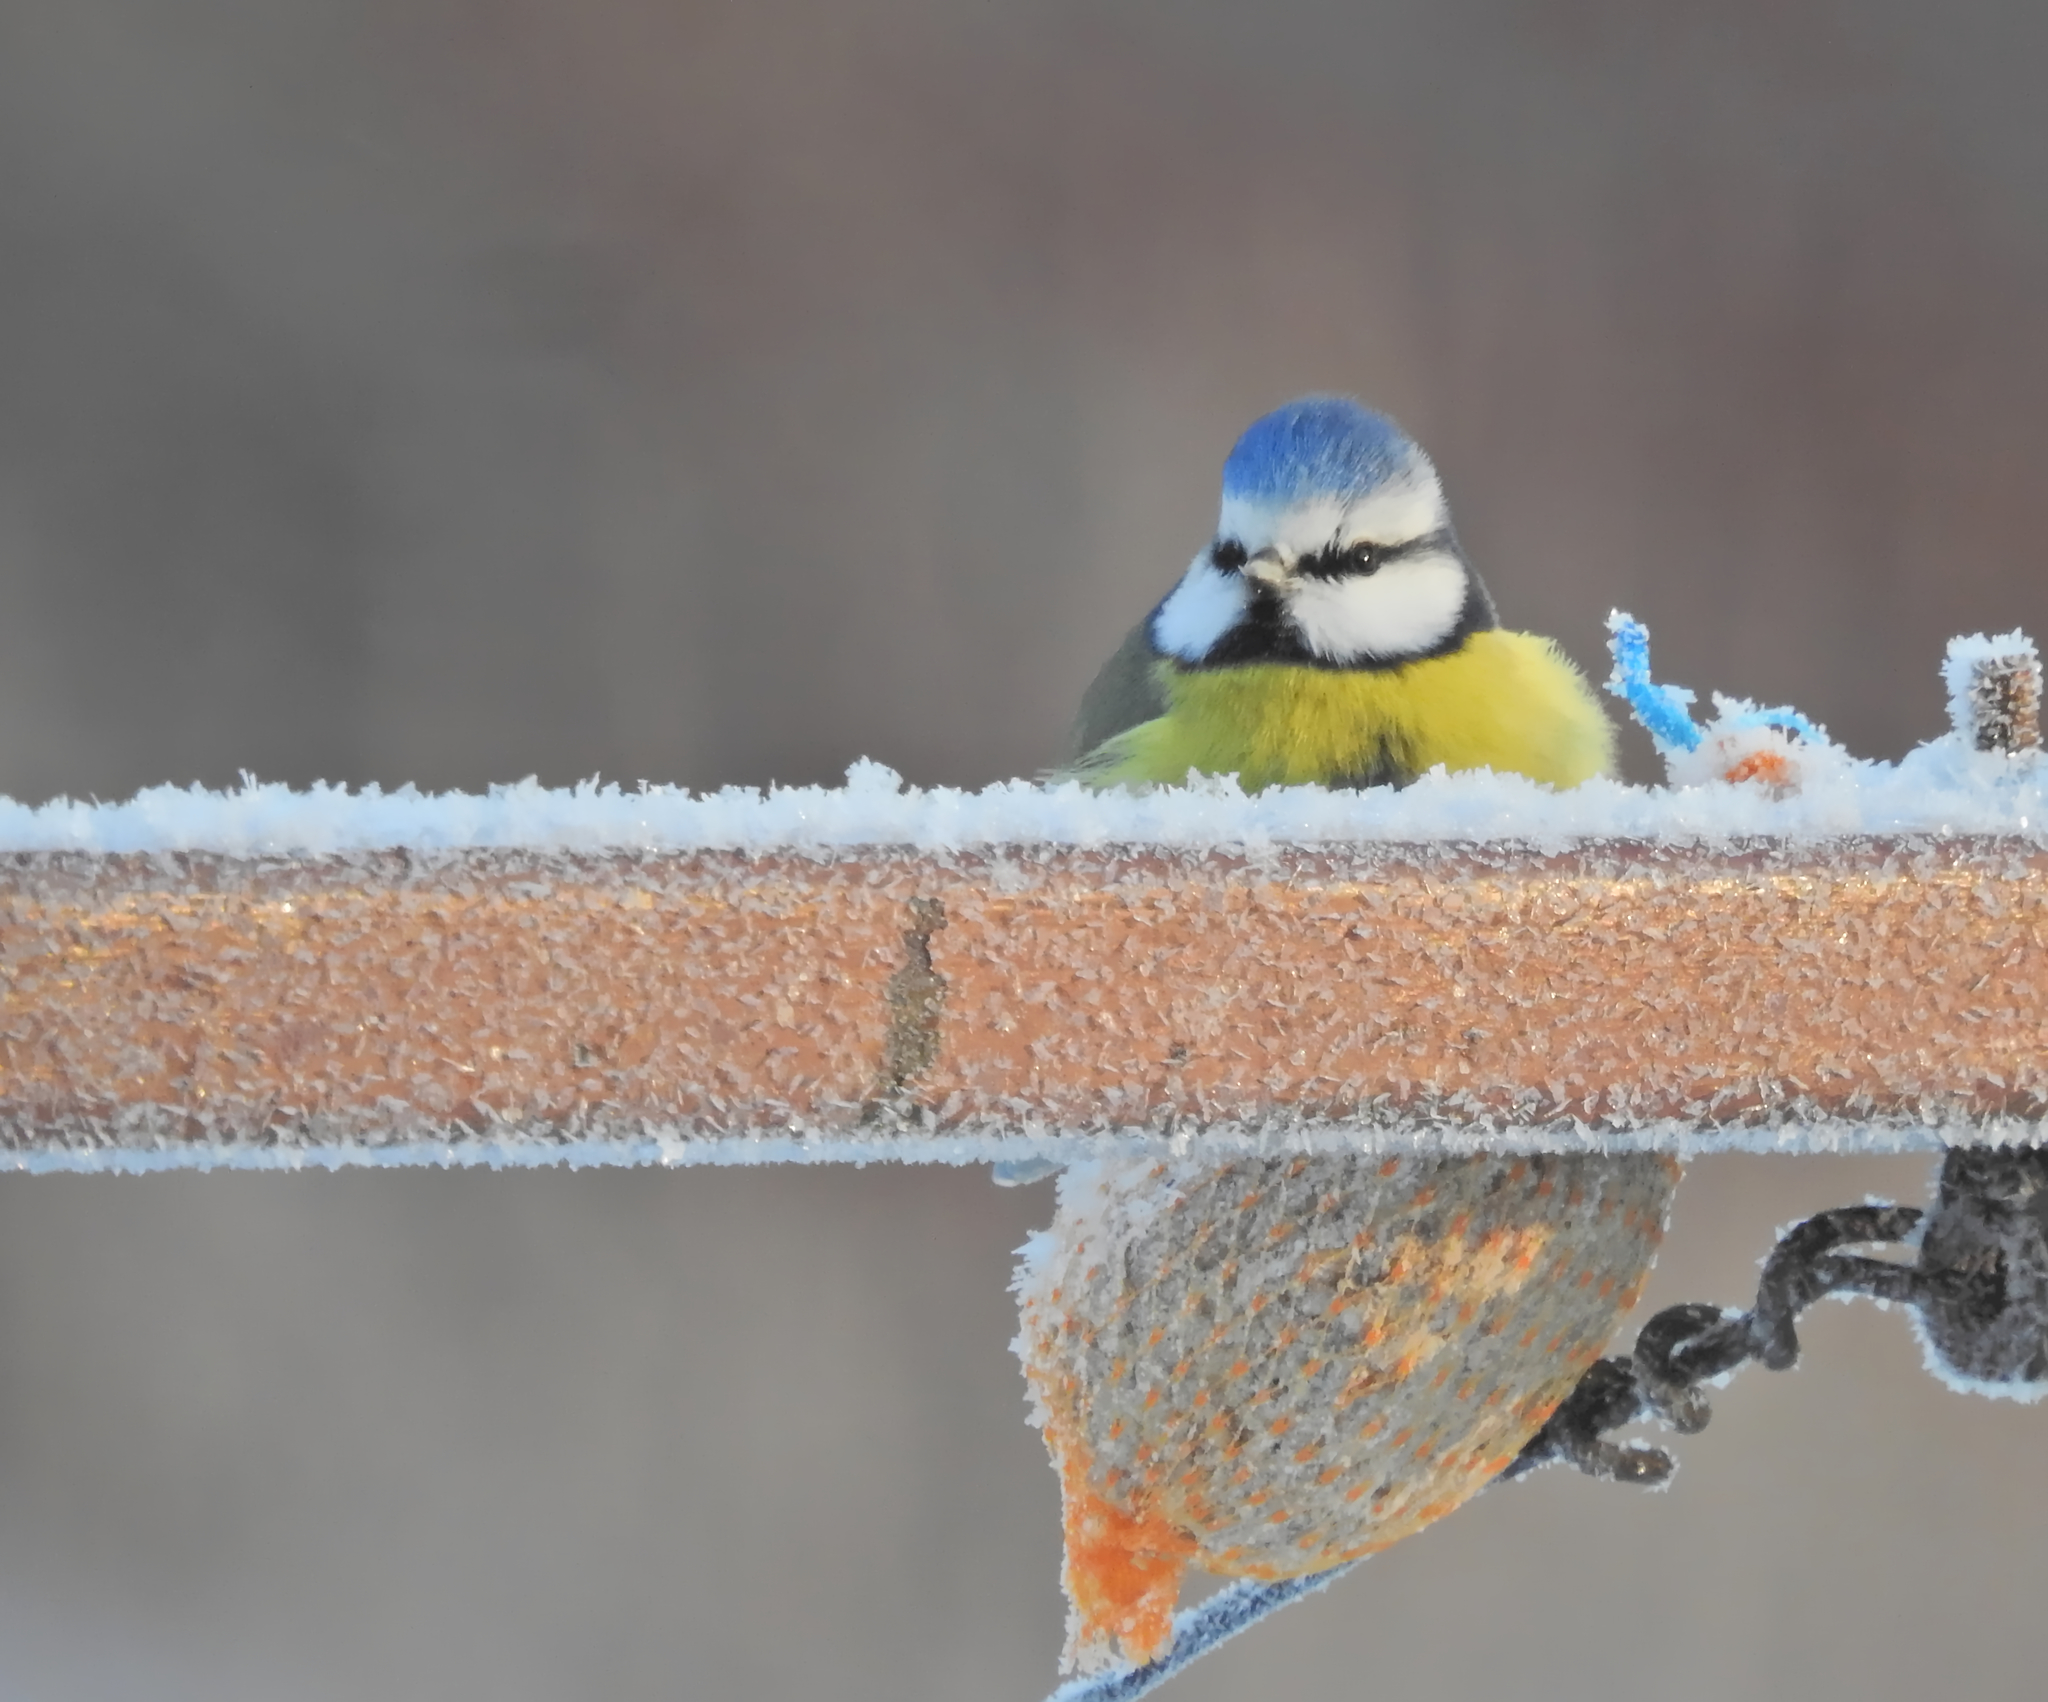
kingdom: Animalia
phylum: Chordata
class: Aves
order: Passeriformes
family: Paridae
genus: Cyanistes
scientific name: Cyanistes caeruleus
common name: Eurasian blue tit
